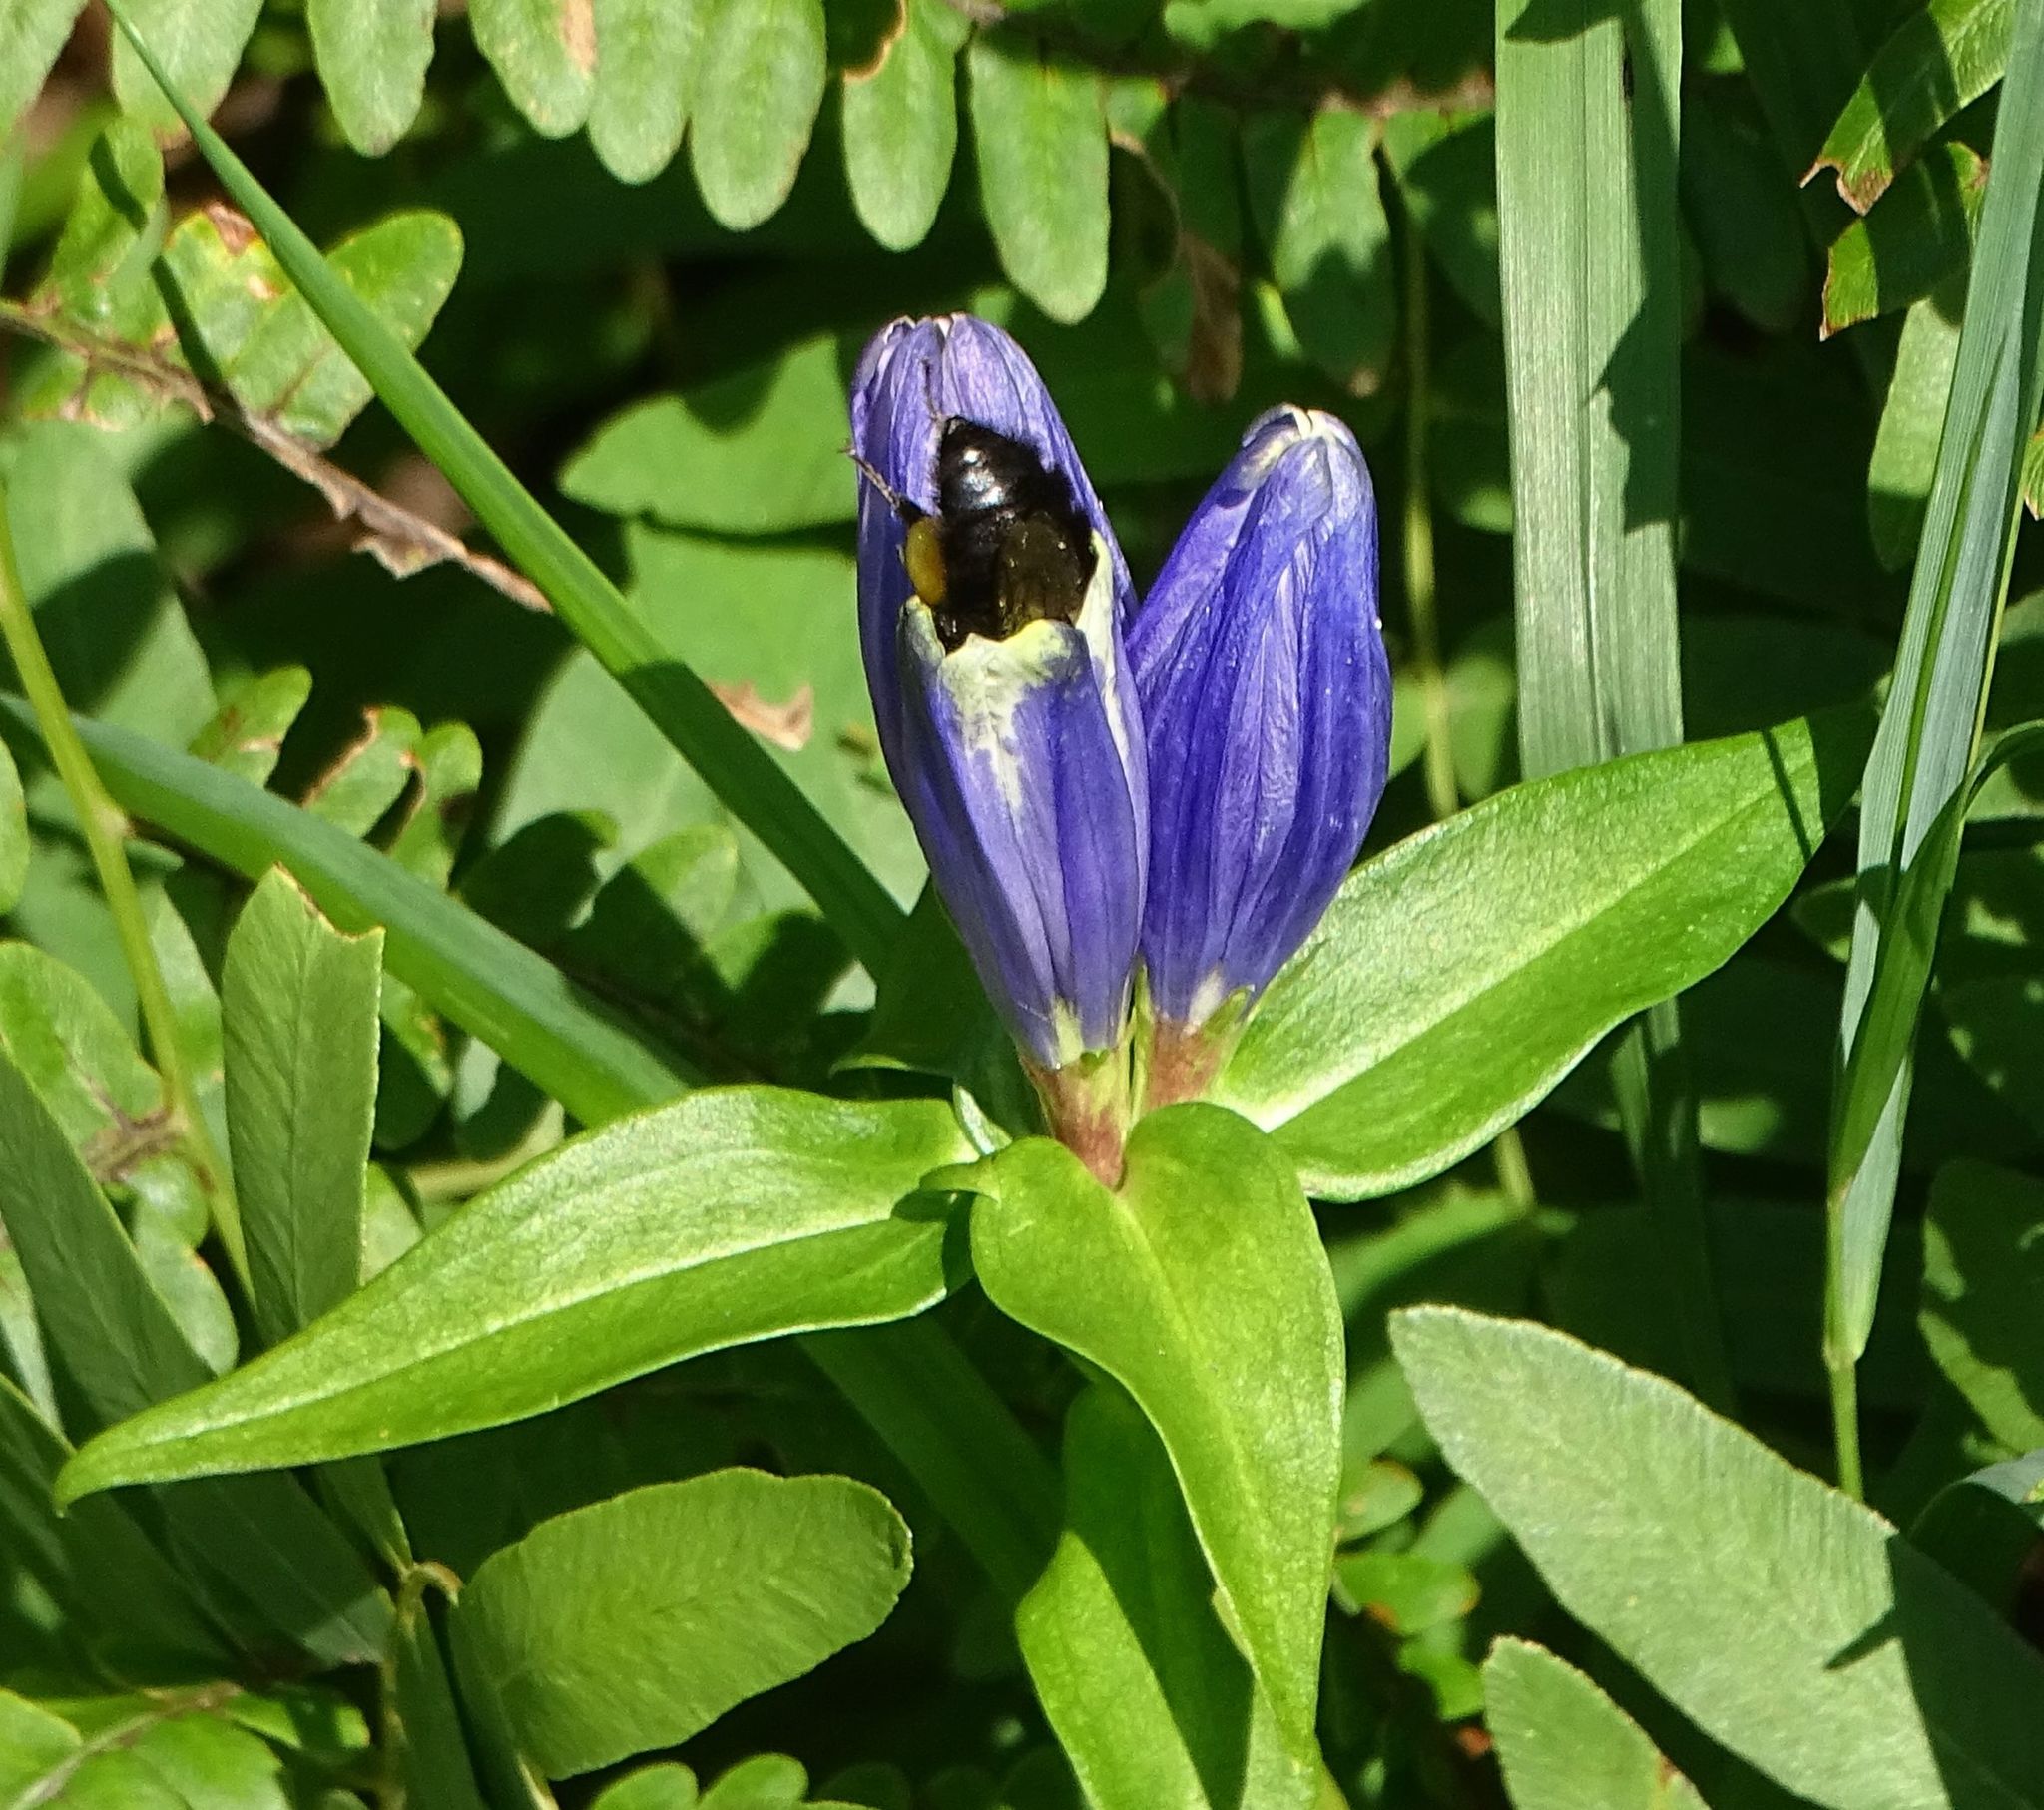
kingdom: Plantae
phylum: Tracheophyta
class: Magnoliopsida
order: Gentianales
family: Gentianaceae
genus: Gentiana
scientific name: Gentiana clausa
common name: Blind gentian
